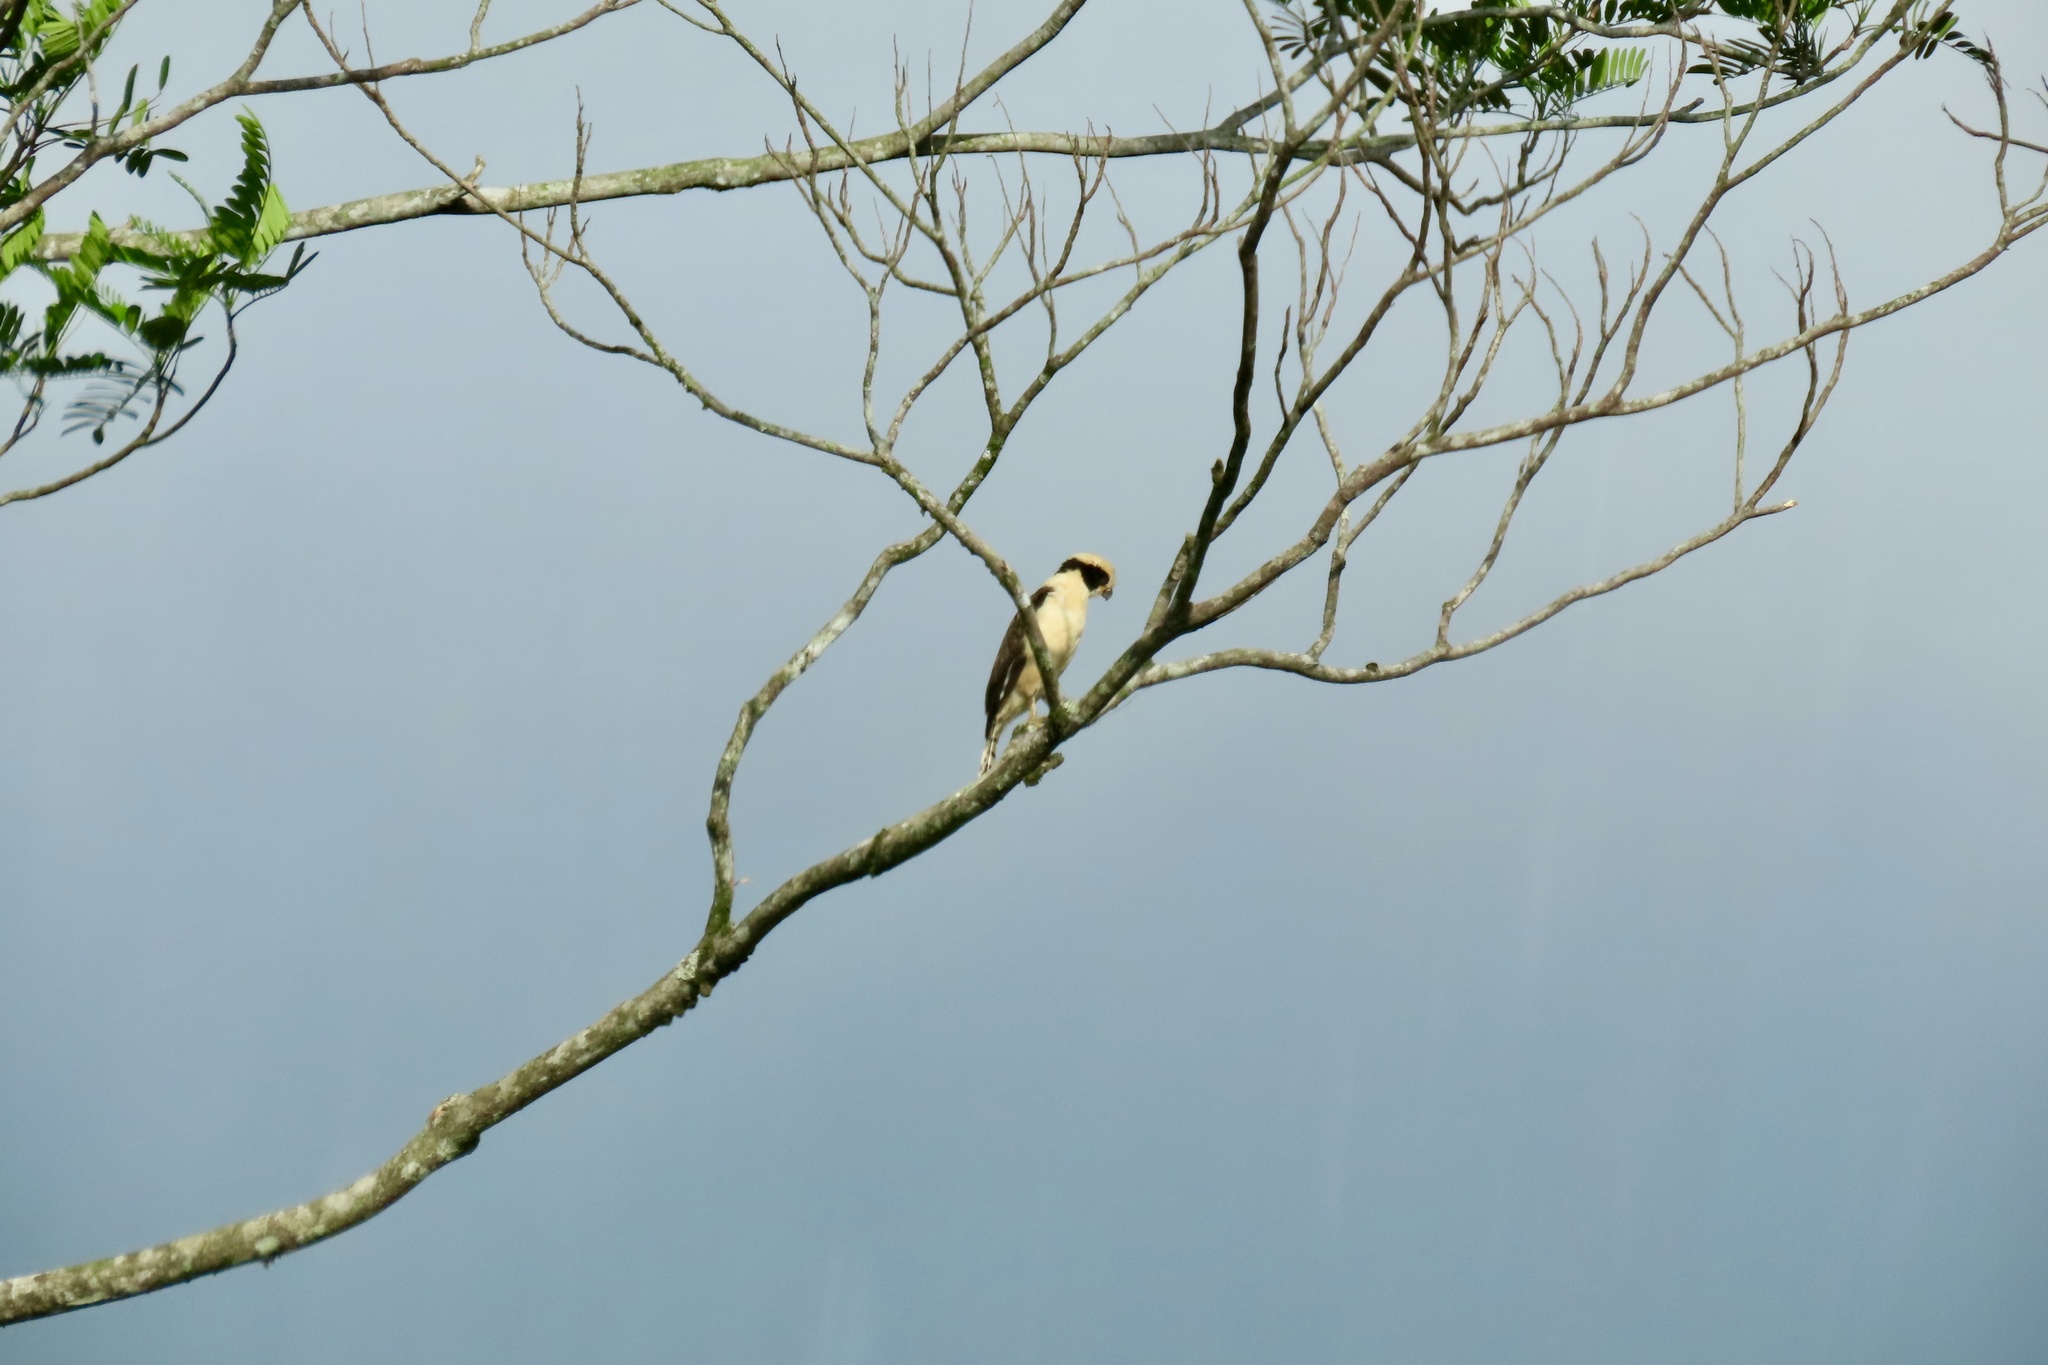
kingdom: Animalia
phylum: Chordata
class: Aves
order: Falconiformes
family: Falconidae
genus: Herpetotheres
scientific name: Herpetotheres cachinnans
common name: Laughing falcon
